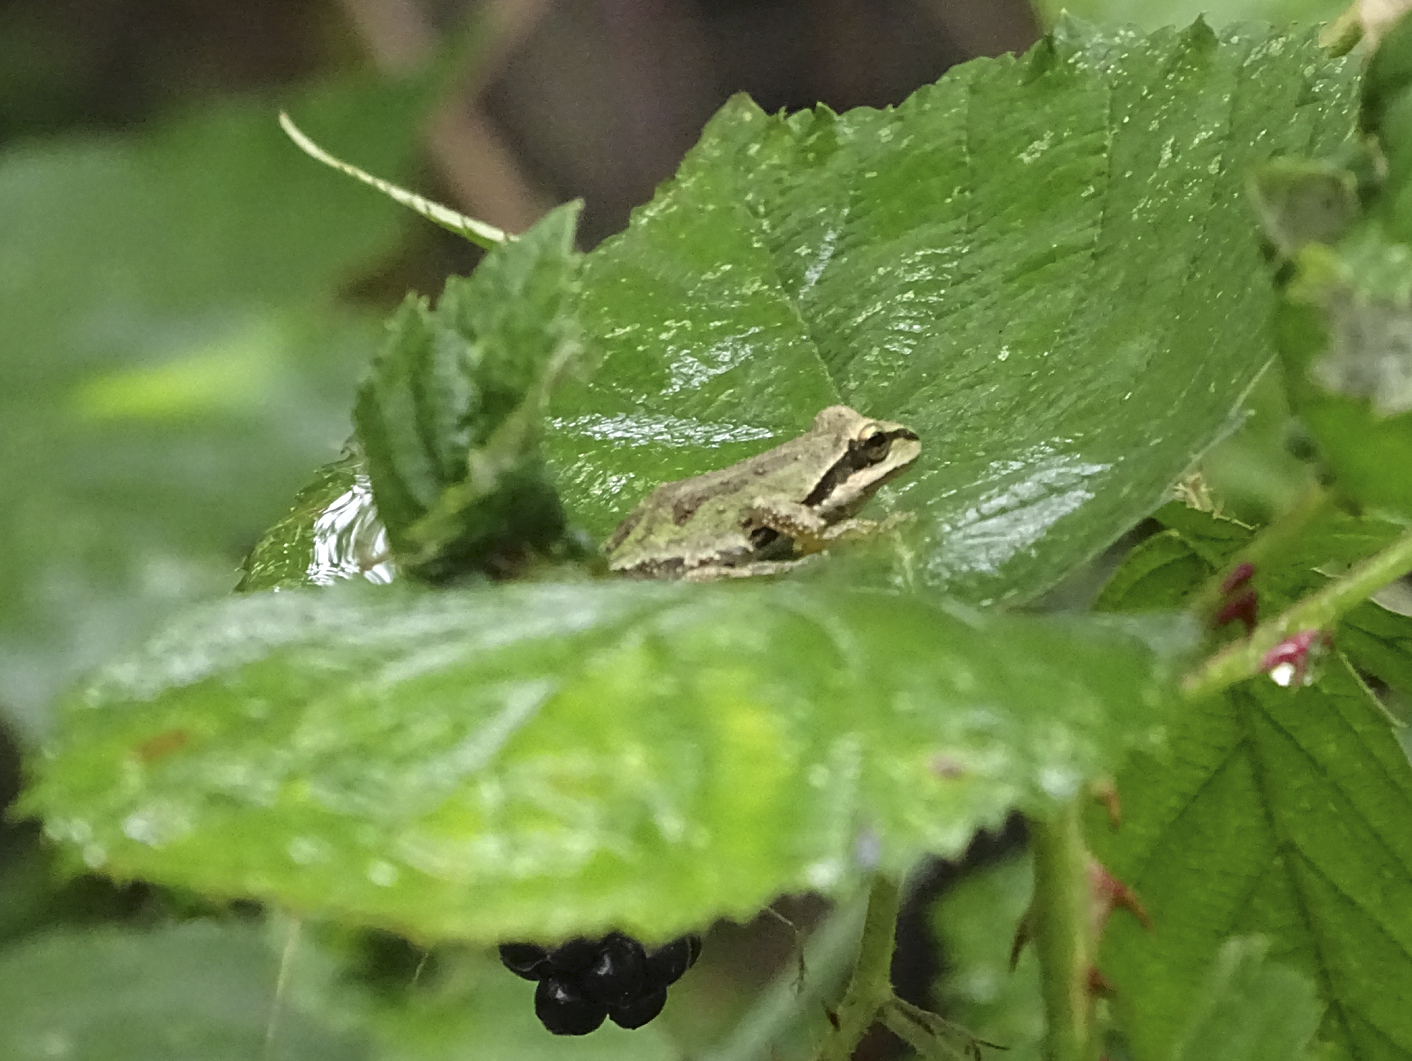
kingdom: Animalia
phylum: Chordata
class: Amphibia
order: Anura
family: Hylidae
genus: Pseudacris
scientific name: Pseudacris regilla
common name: Pacific chorus frog
